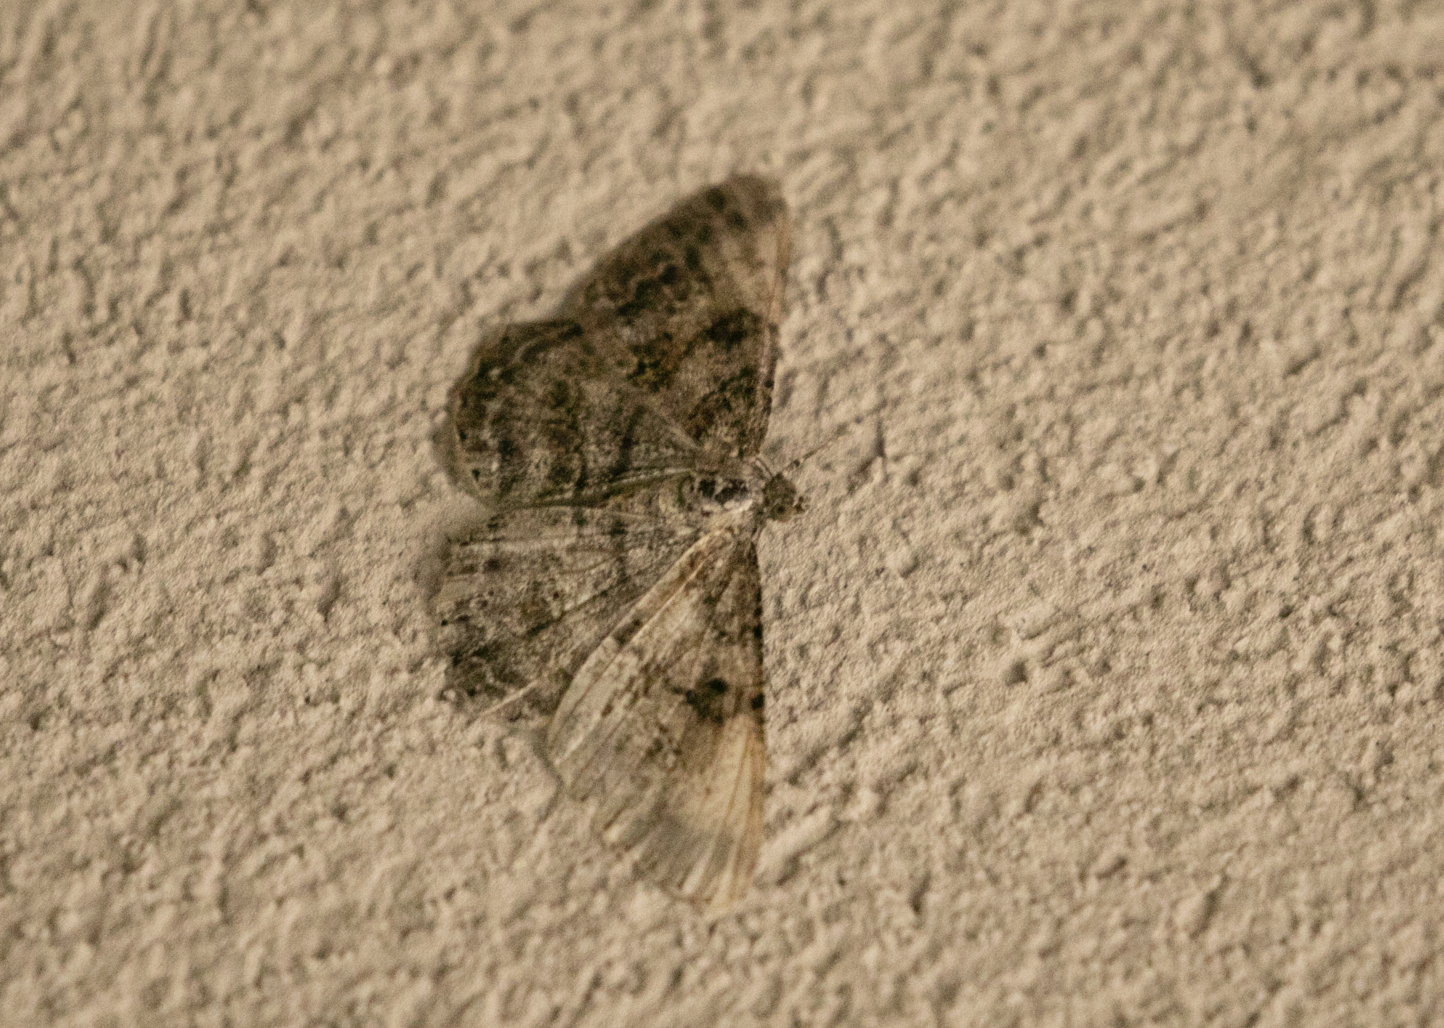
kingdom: Animalia
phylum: Arthropoda
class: Insecta
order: Lepidoptera
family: Geometridae
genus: Peribatodes
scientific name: Peribatodes rhomboidaria
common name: Willow beauty
